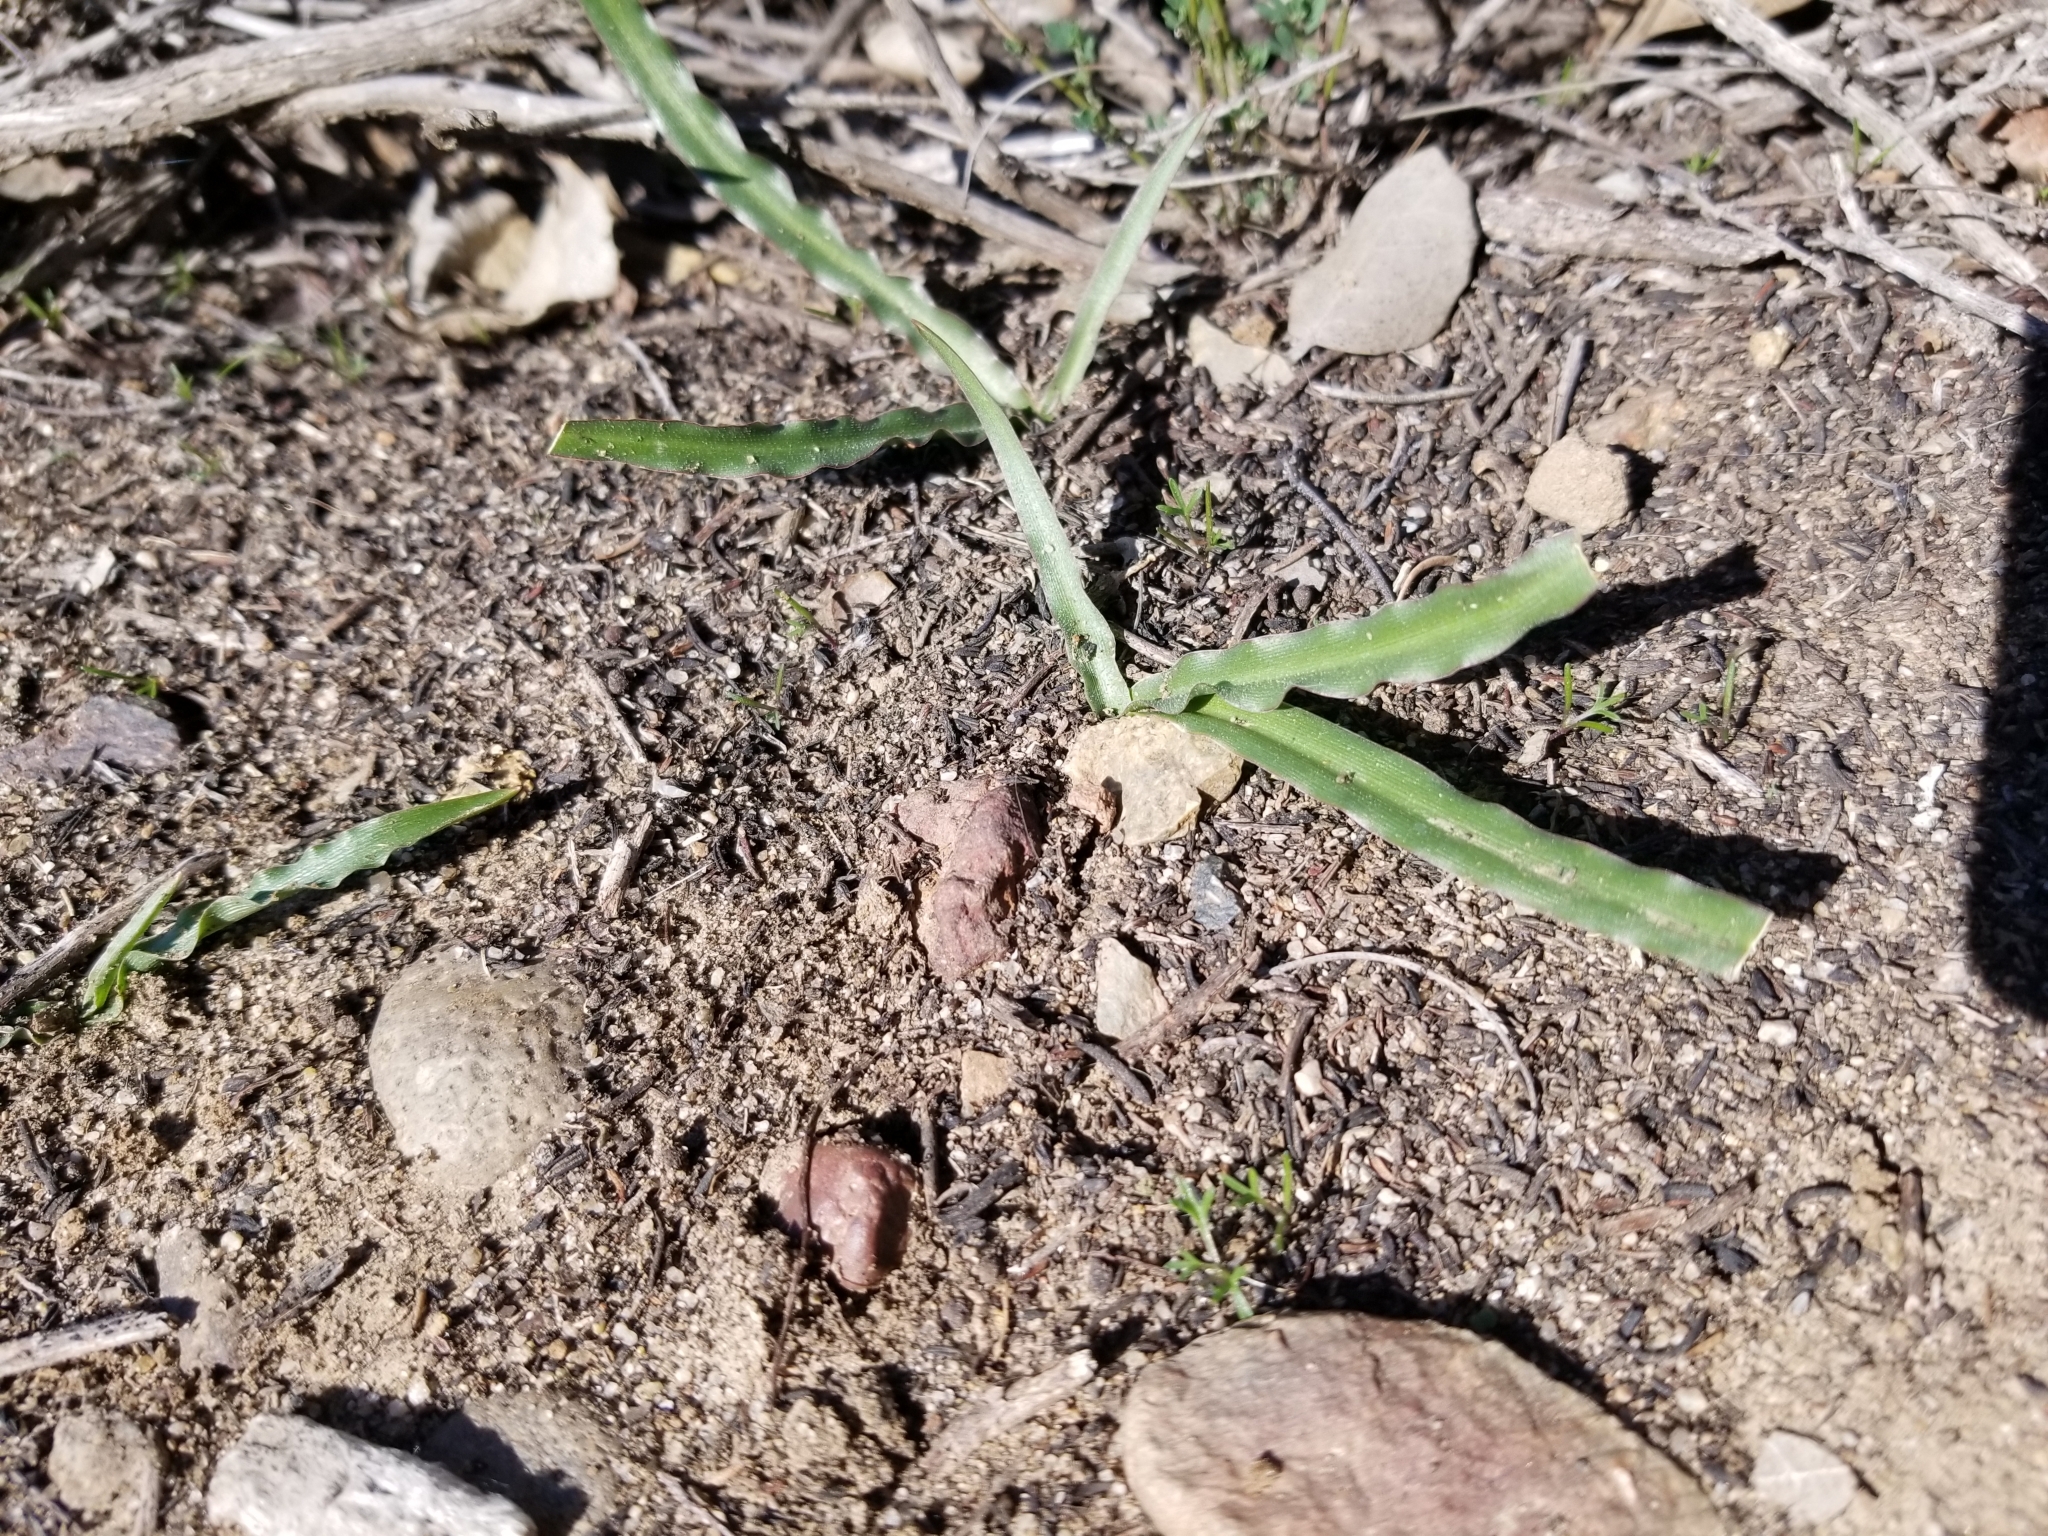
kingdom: Plantae
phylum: Tracheophyta
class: Liliopsida
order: Asparagales
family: Asparagaceae
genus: Hooveria
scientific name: Hooveria parviflora
